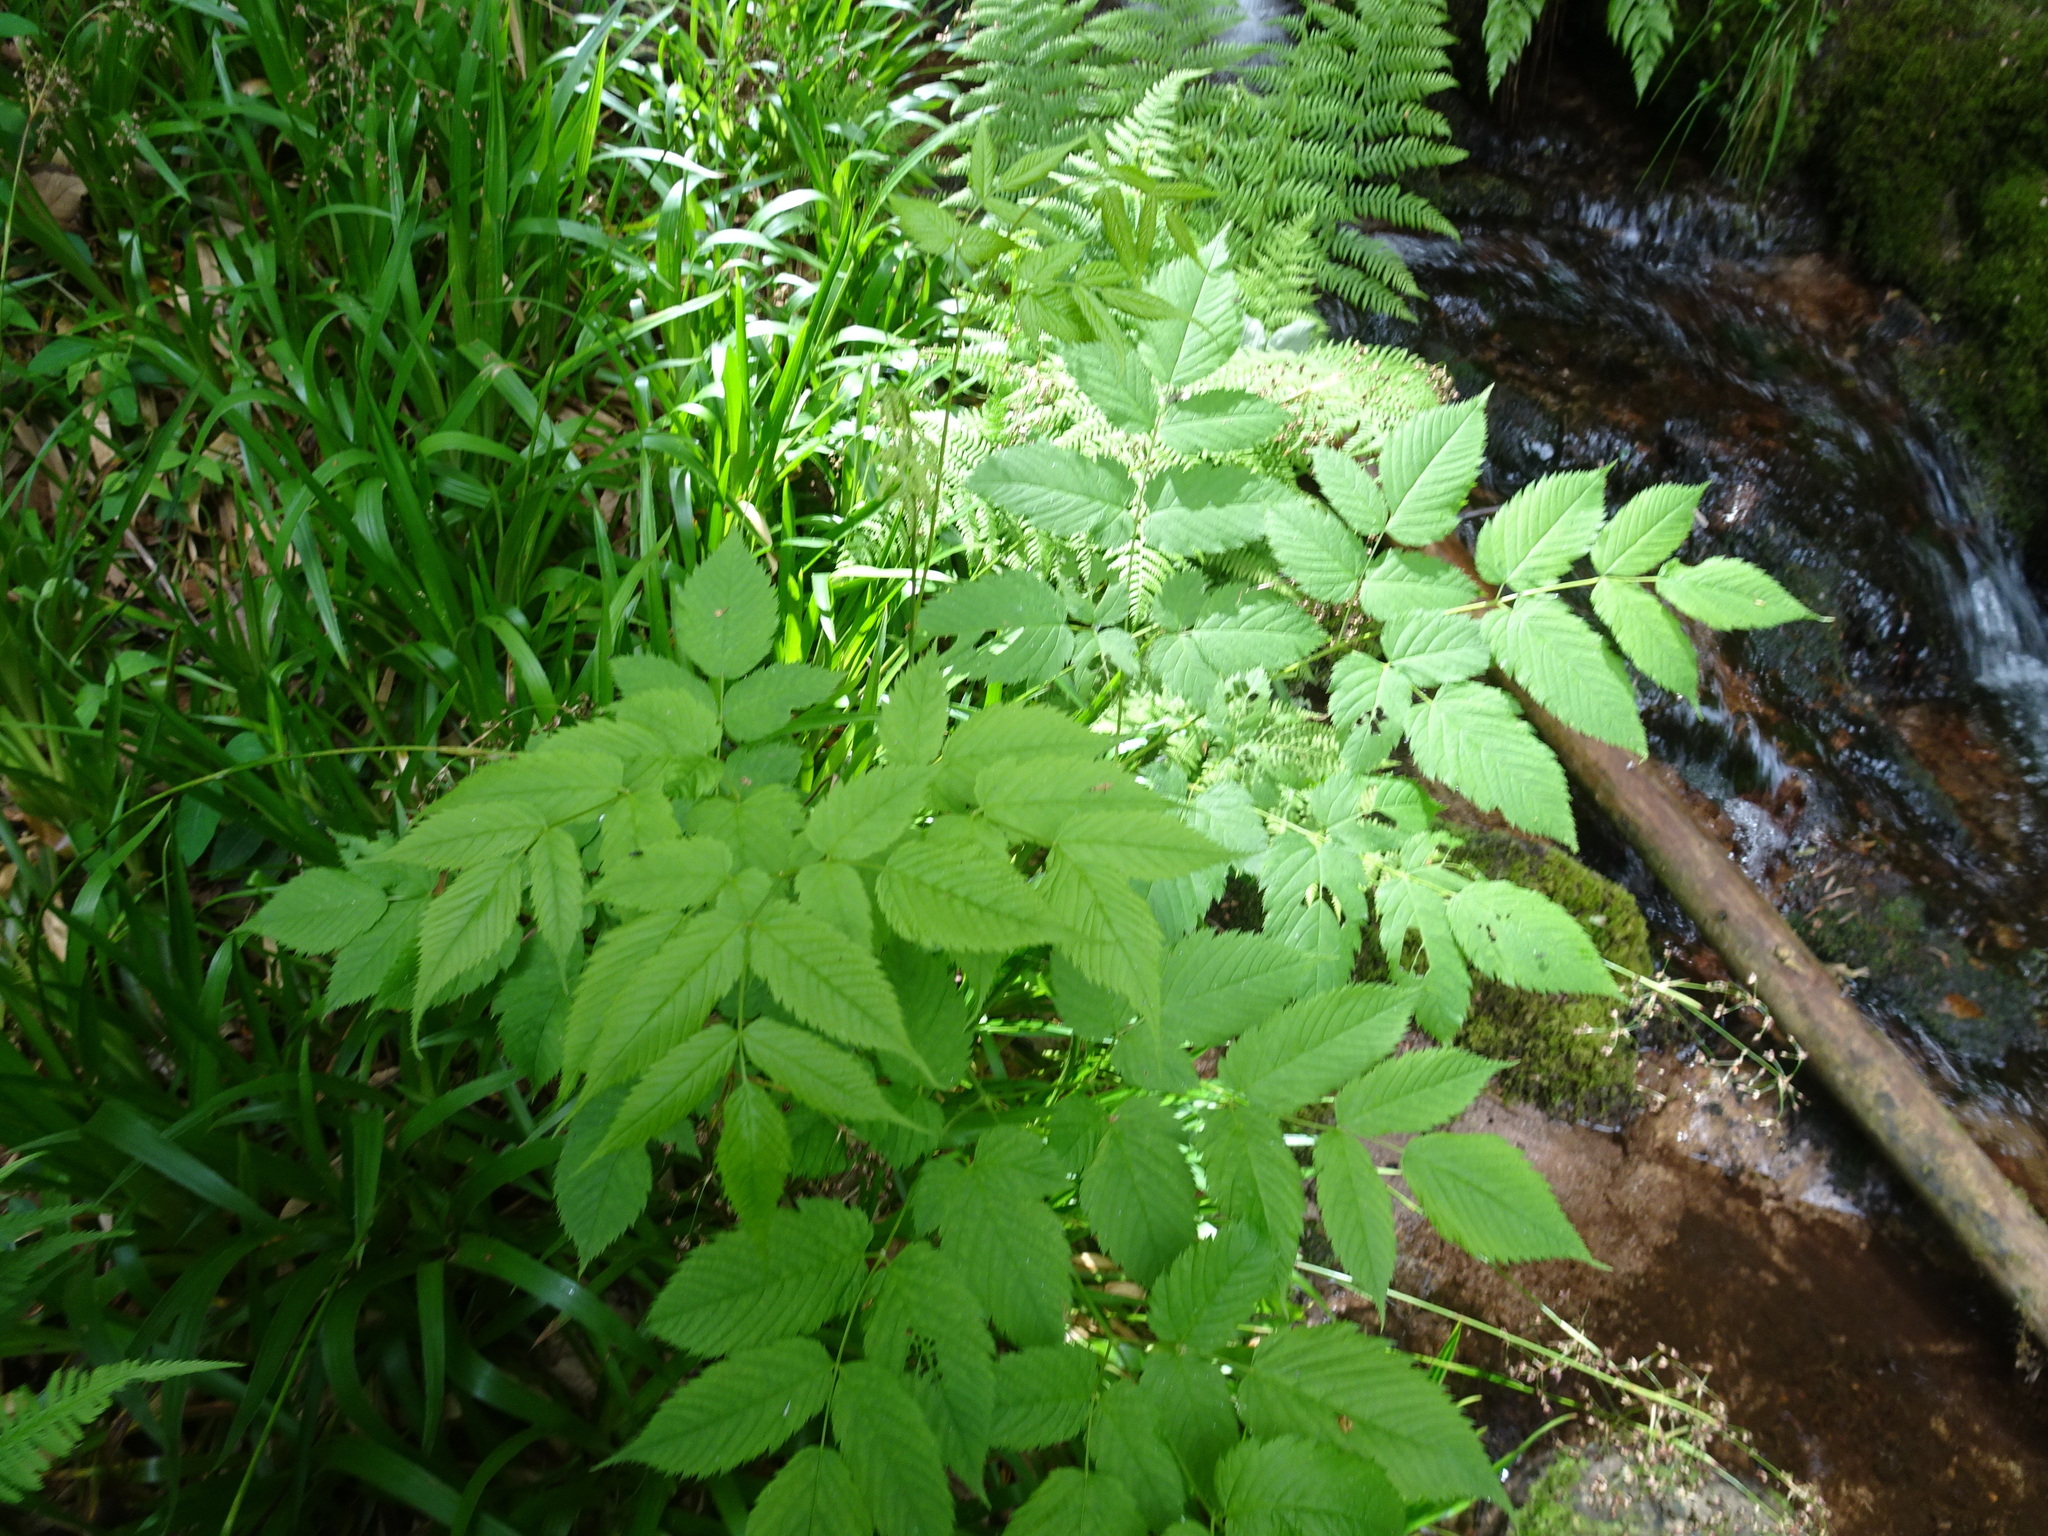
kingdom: Plantae
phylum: Tracheophyta
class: Magnoliopsida
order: Rosales
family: Rosaceae
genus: Aruncus
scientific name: Aruncus dioicus
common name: Buck's-beard
